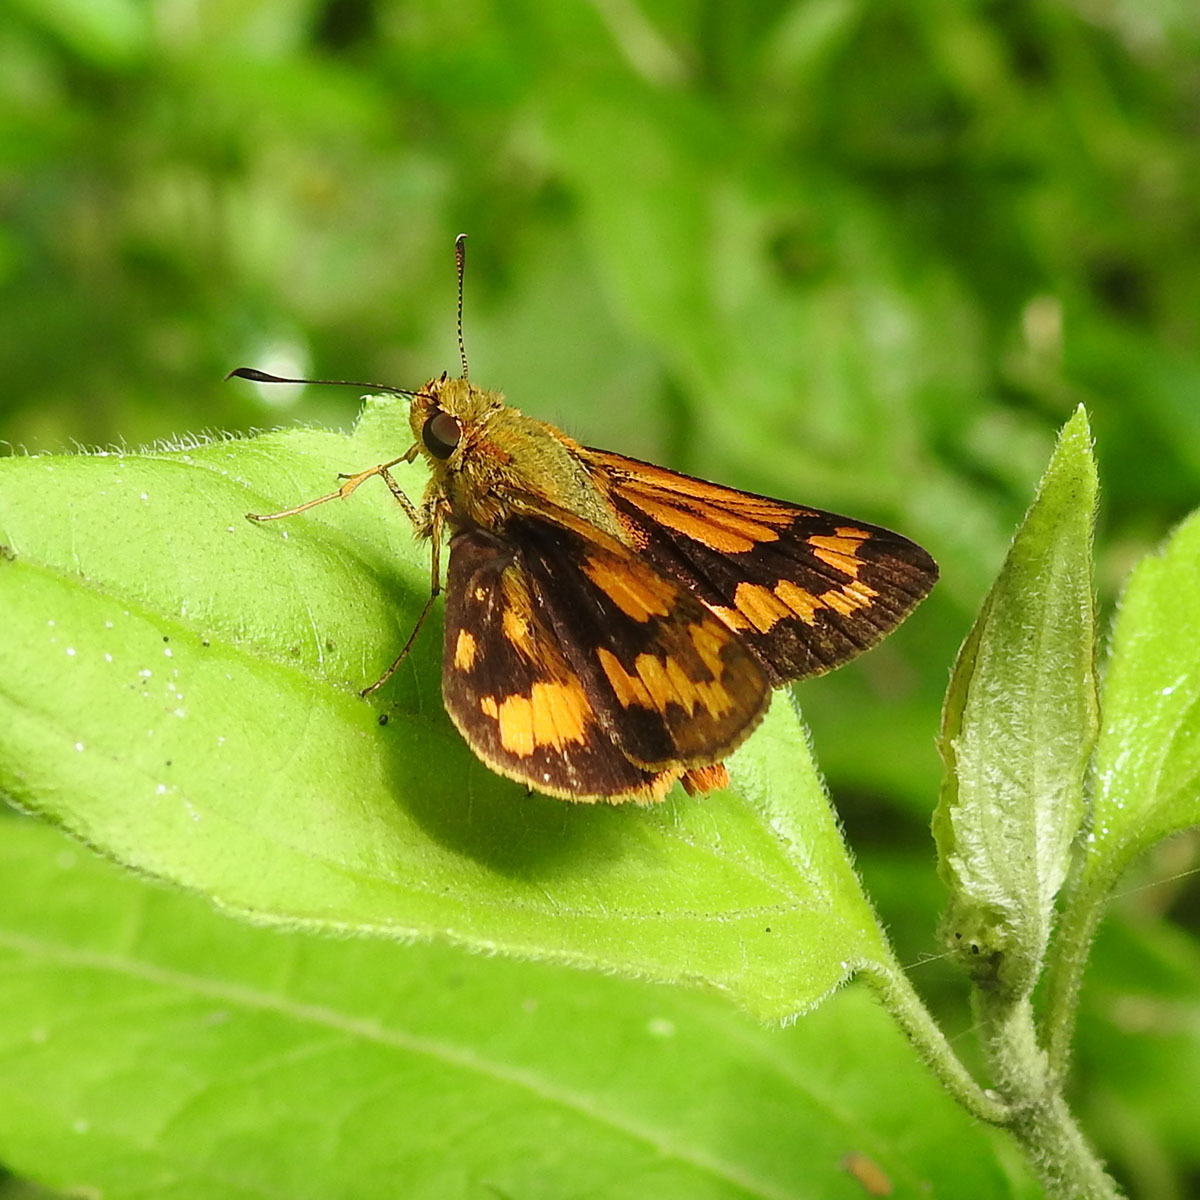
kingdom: Animalia
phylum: Arthropoda
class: Insecta
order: Lepidoptera
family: Hesperiidae
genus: Potanthus
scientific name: Potanthus omaha
